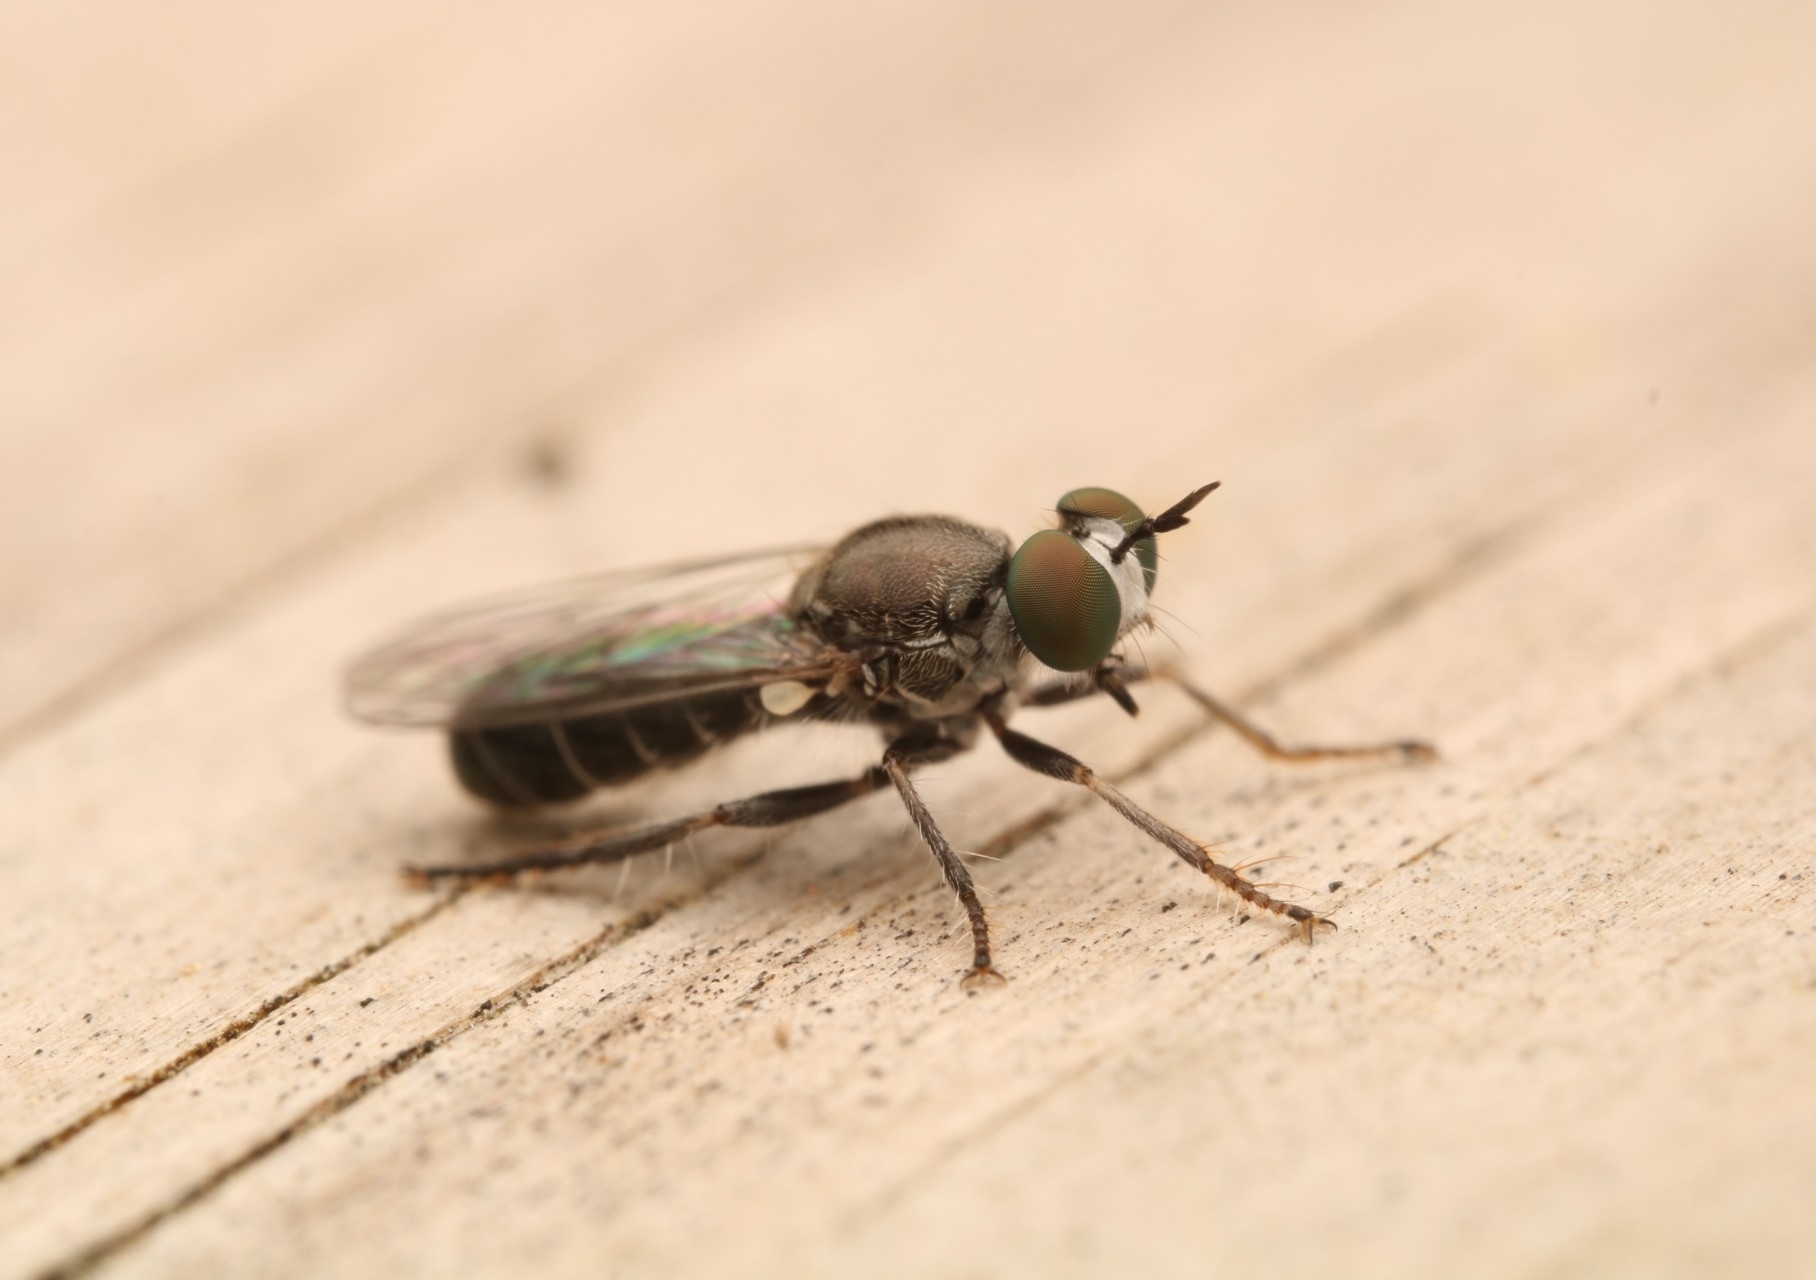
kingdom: Animalia
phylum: Arthropoda
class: Insecta
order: Diptera
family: Asilidae
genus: Atomosia
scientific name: Atomosia puella
